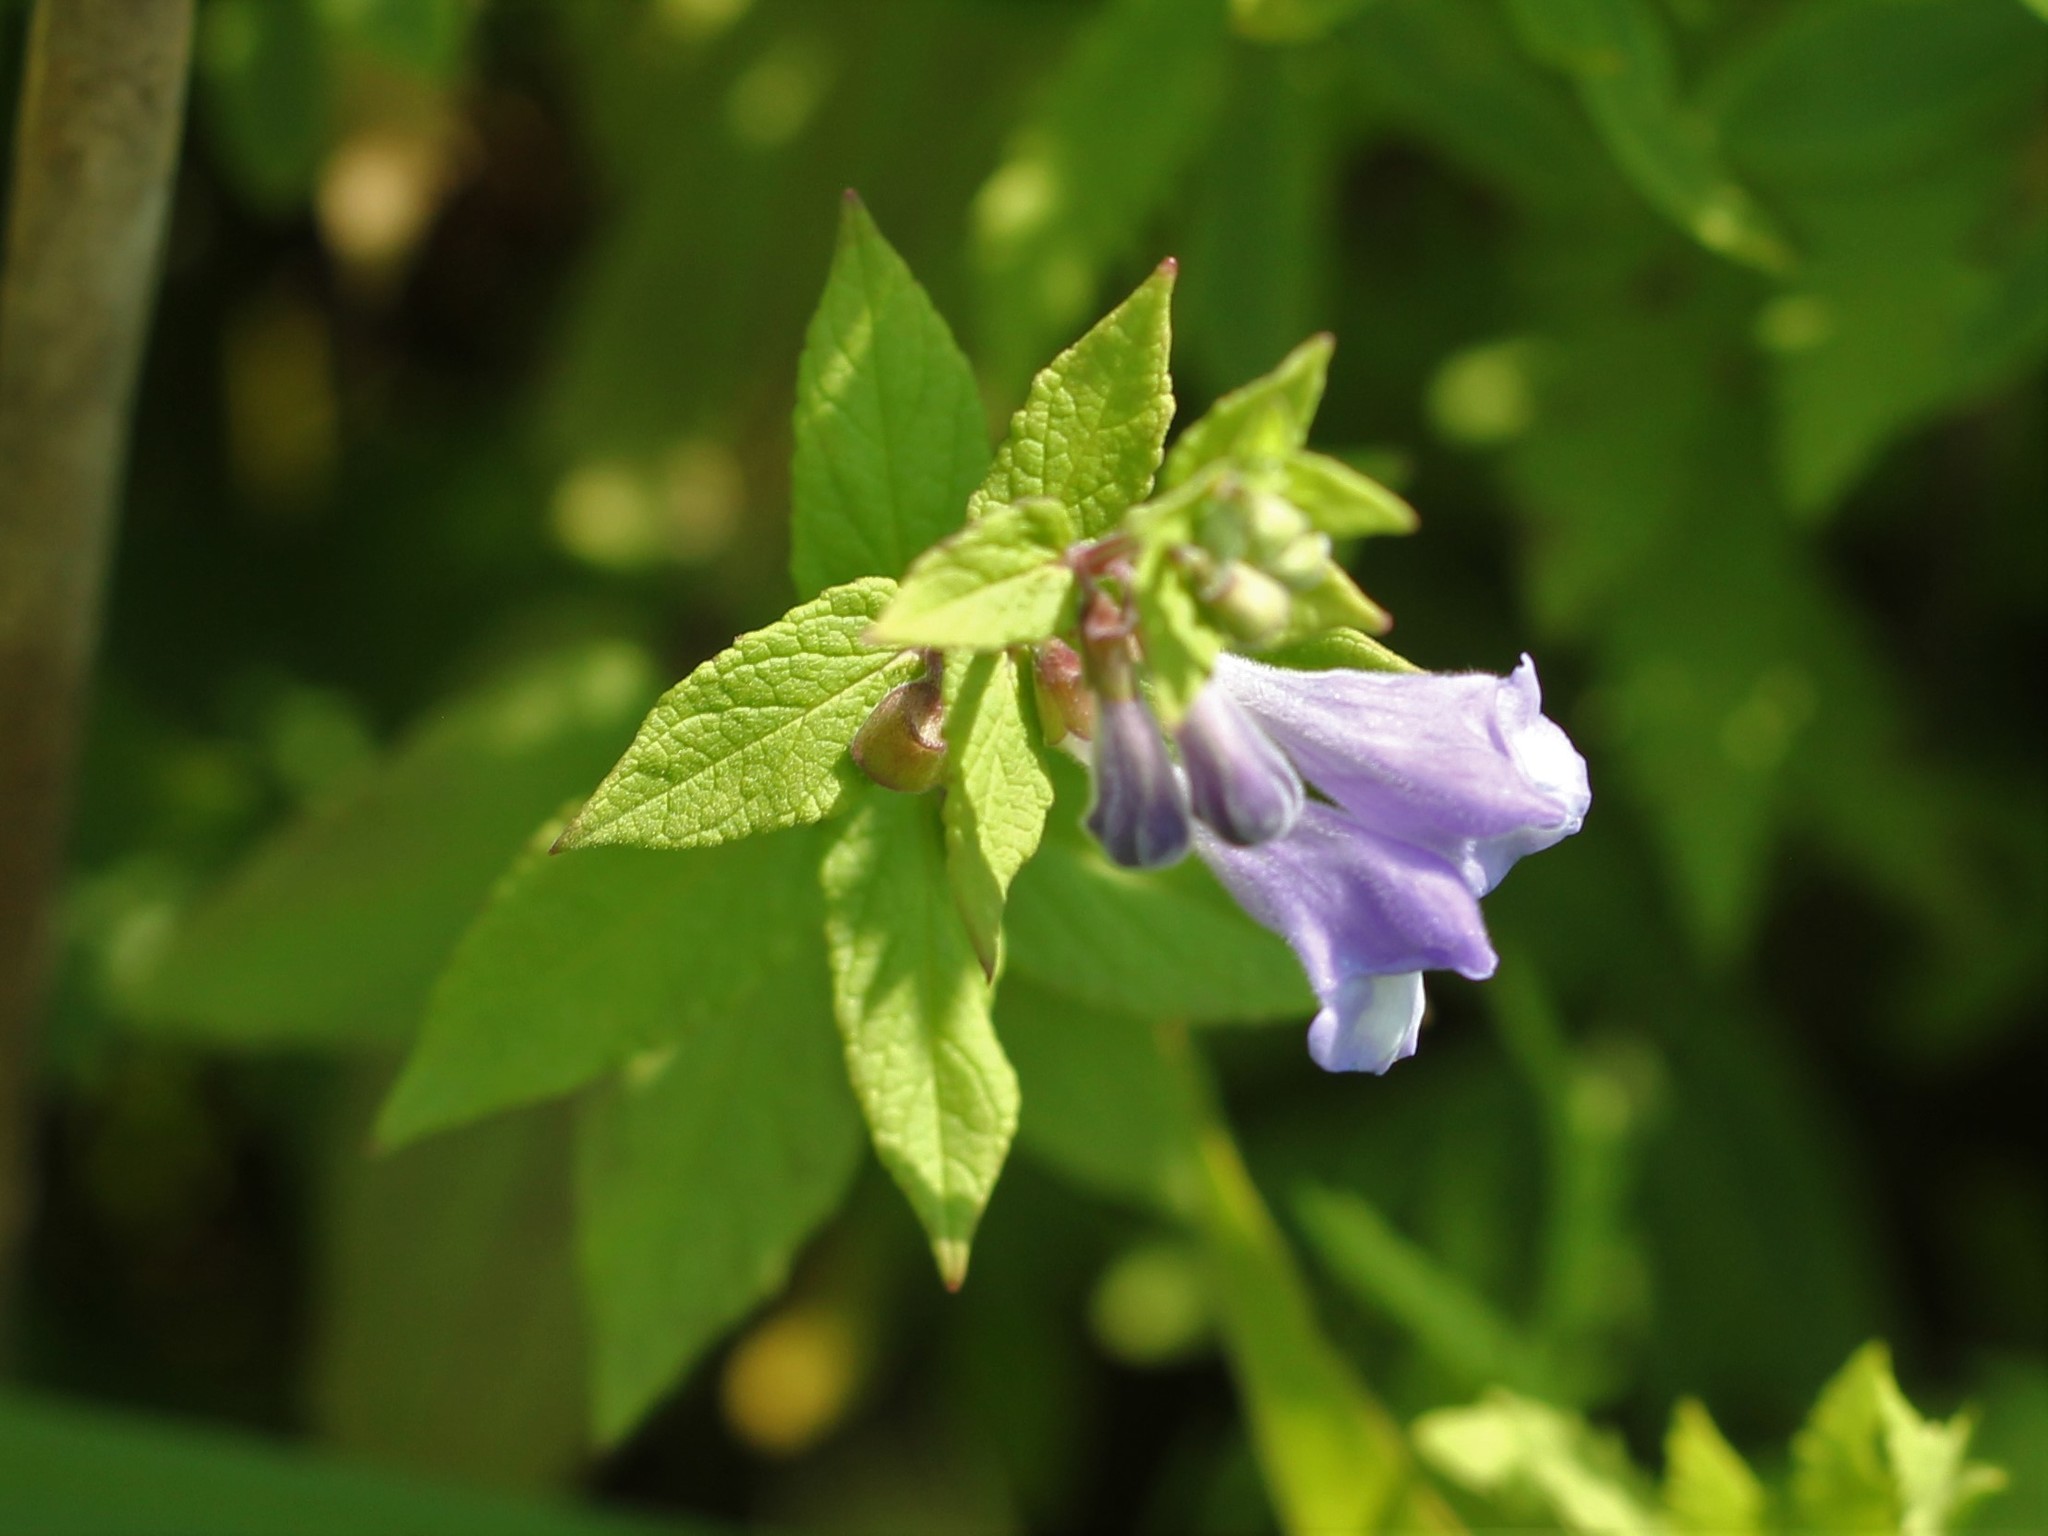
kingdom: Plantae
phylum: Tracheophyta
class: Magnoliopsida
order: Lamiales
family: Lamiaceae
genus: Scutellaria
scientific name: Scutellaria galericulata
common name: Skullcap
